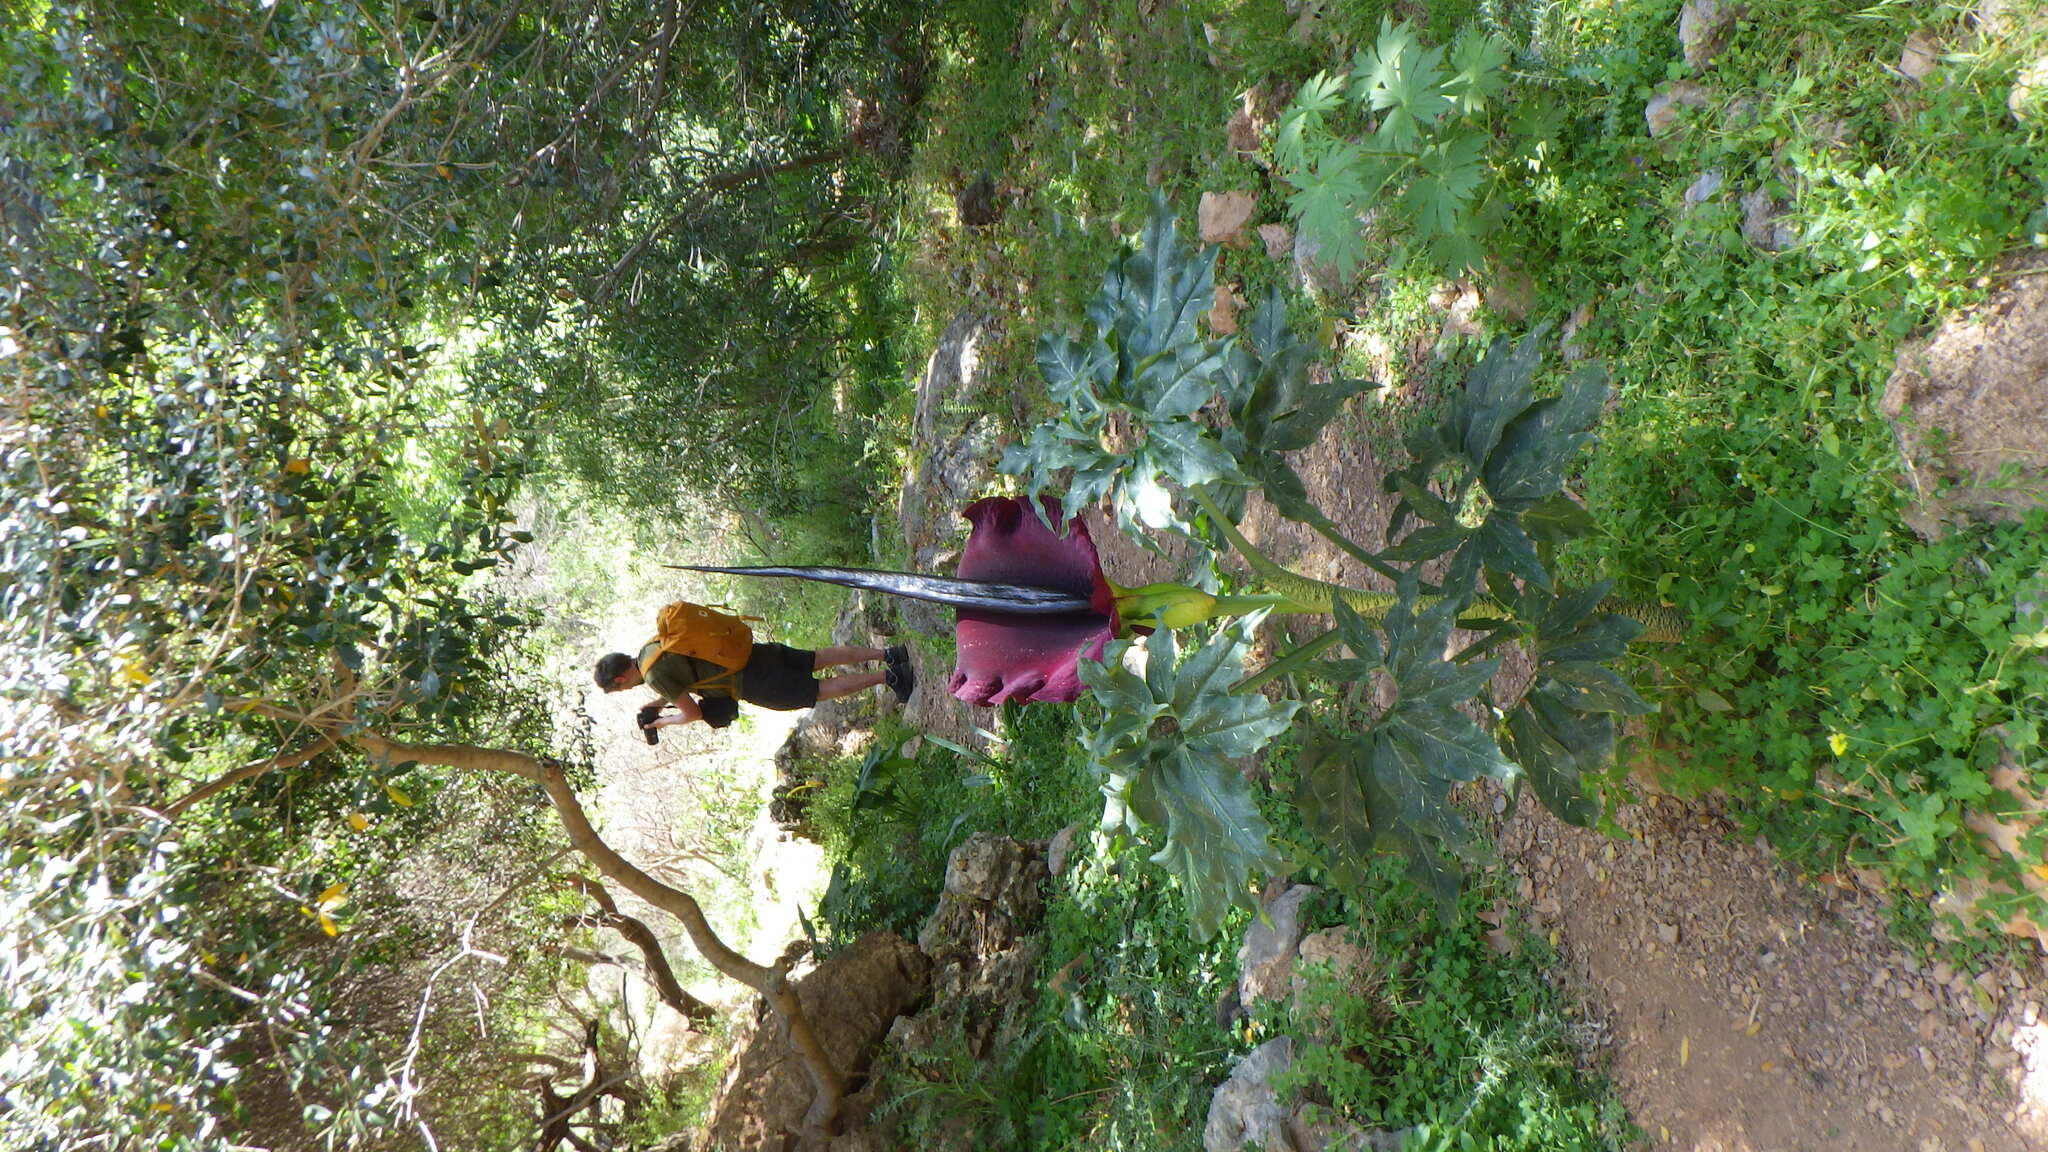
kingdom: Plantae
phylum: Tracheophyta
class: Liliopsida
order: Alismatales
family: Araceae
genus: Dracunculus
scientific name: Dracunculus vulgaris
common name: Dragon arum
